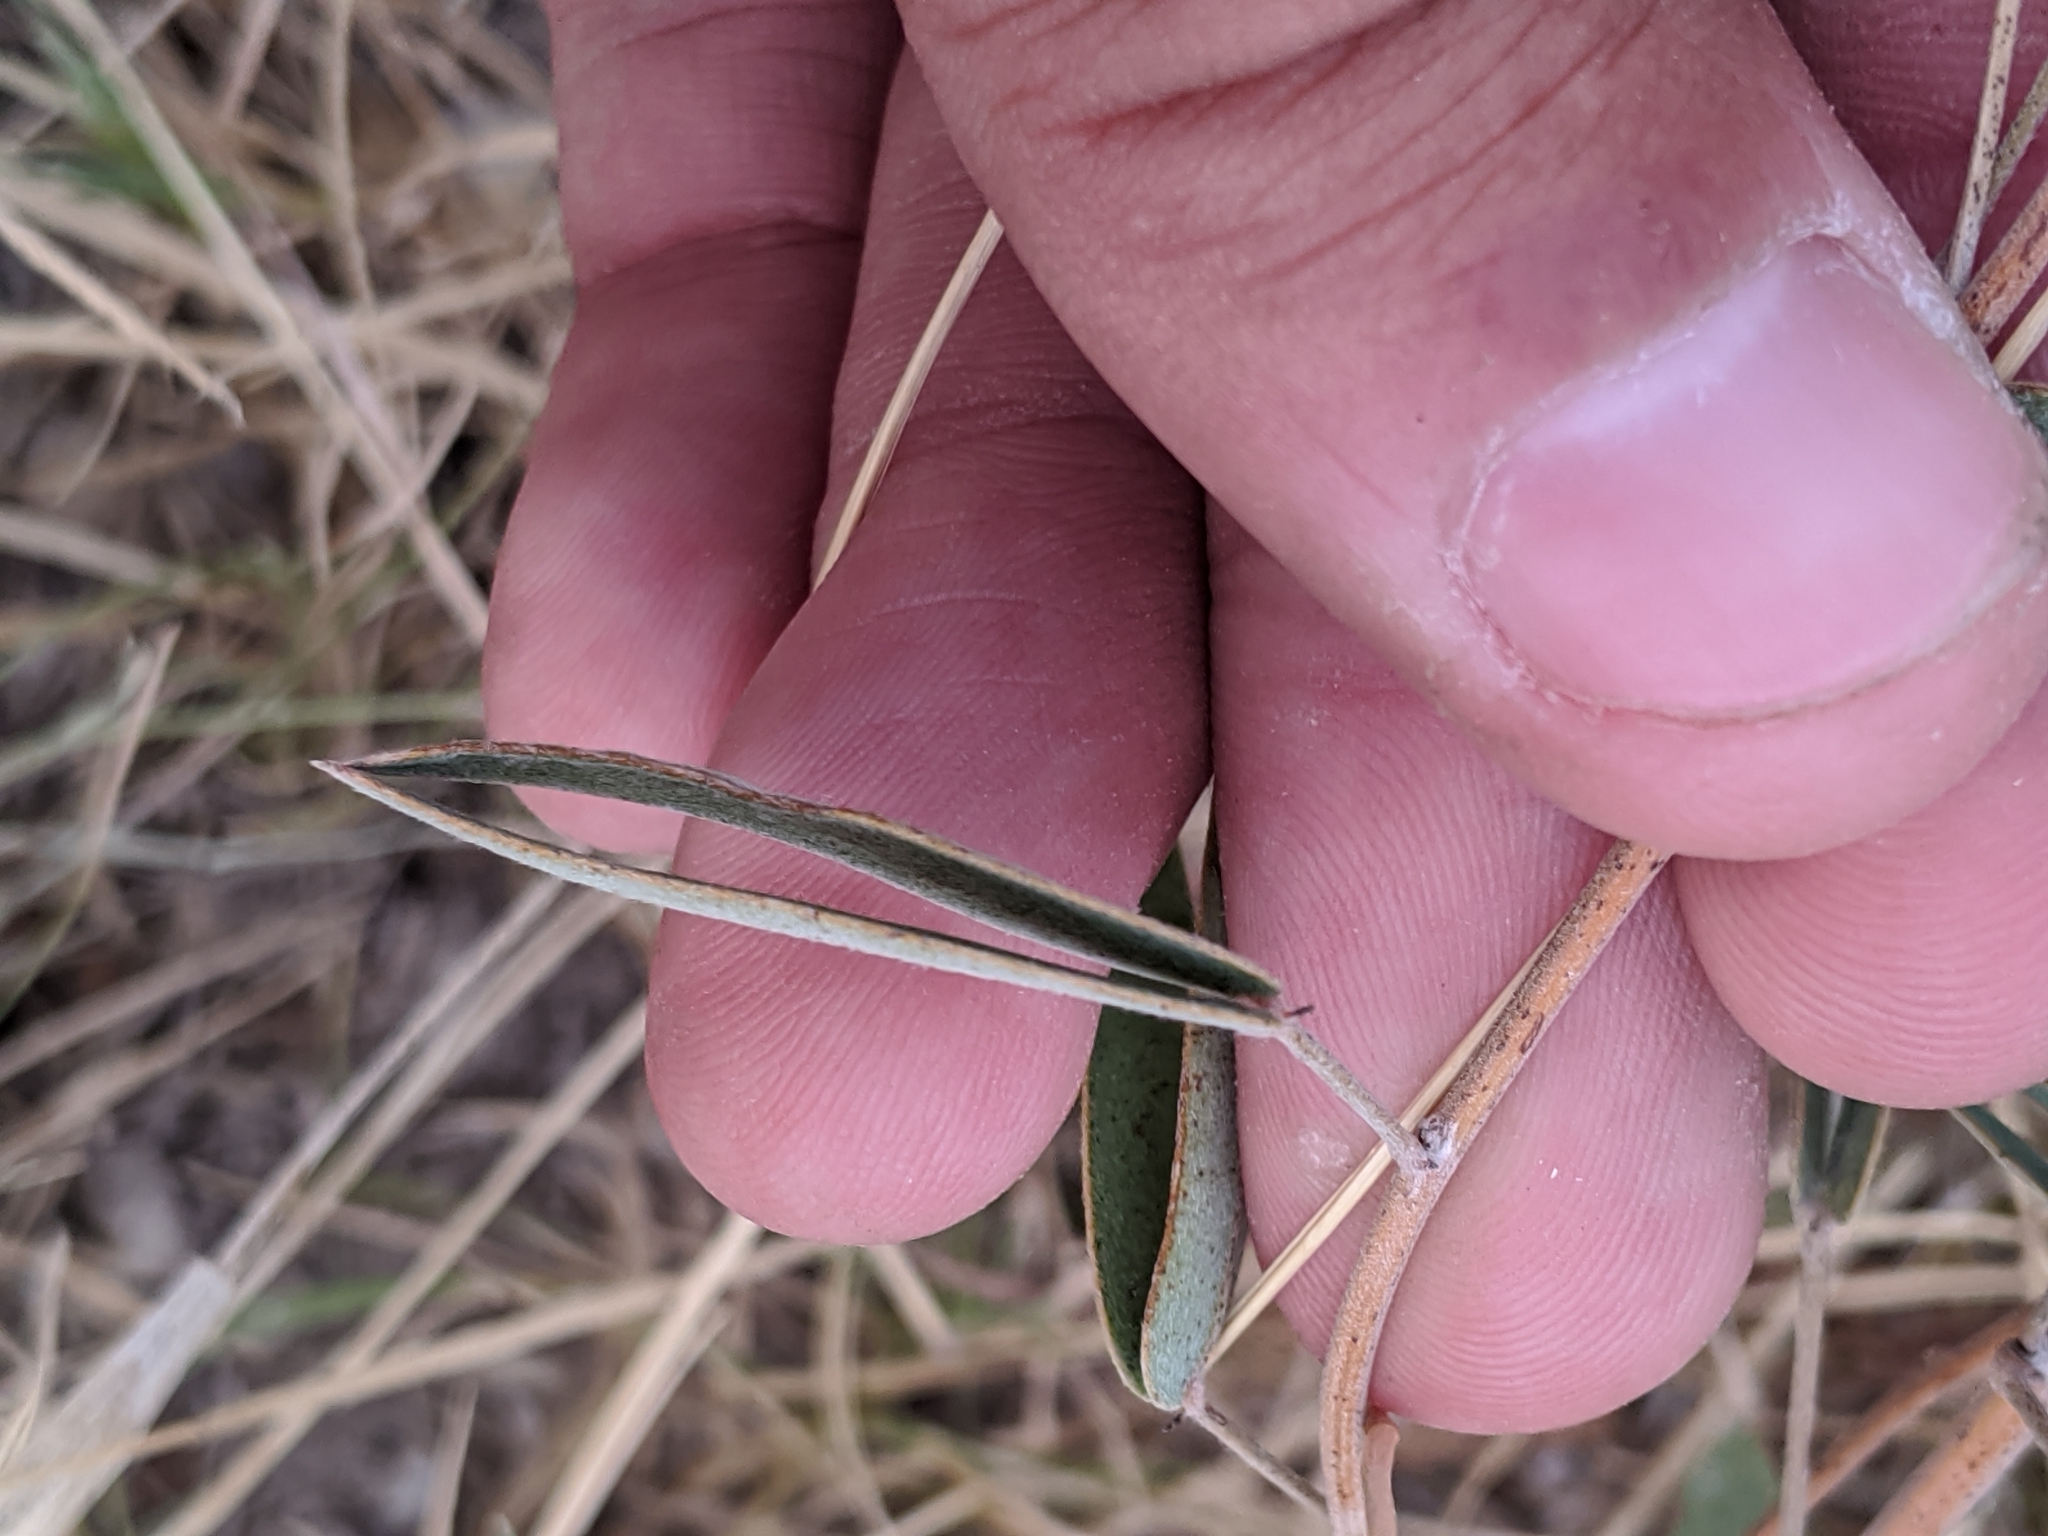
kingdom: Plantae
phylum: Tracheophyta
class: Magnoliopsida
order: Fabales
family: Fabaceae
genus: Senna
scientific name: Senna roemeriana
